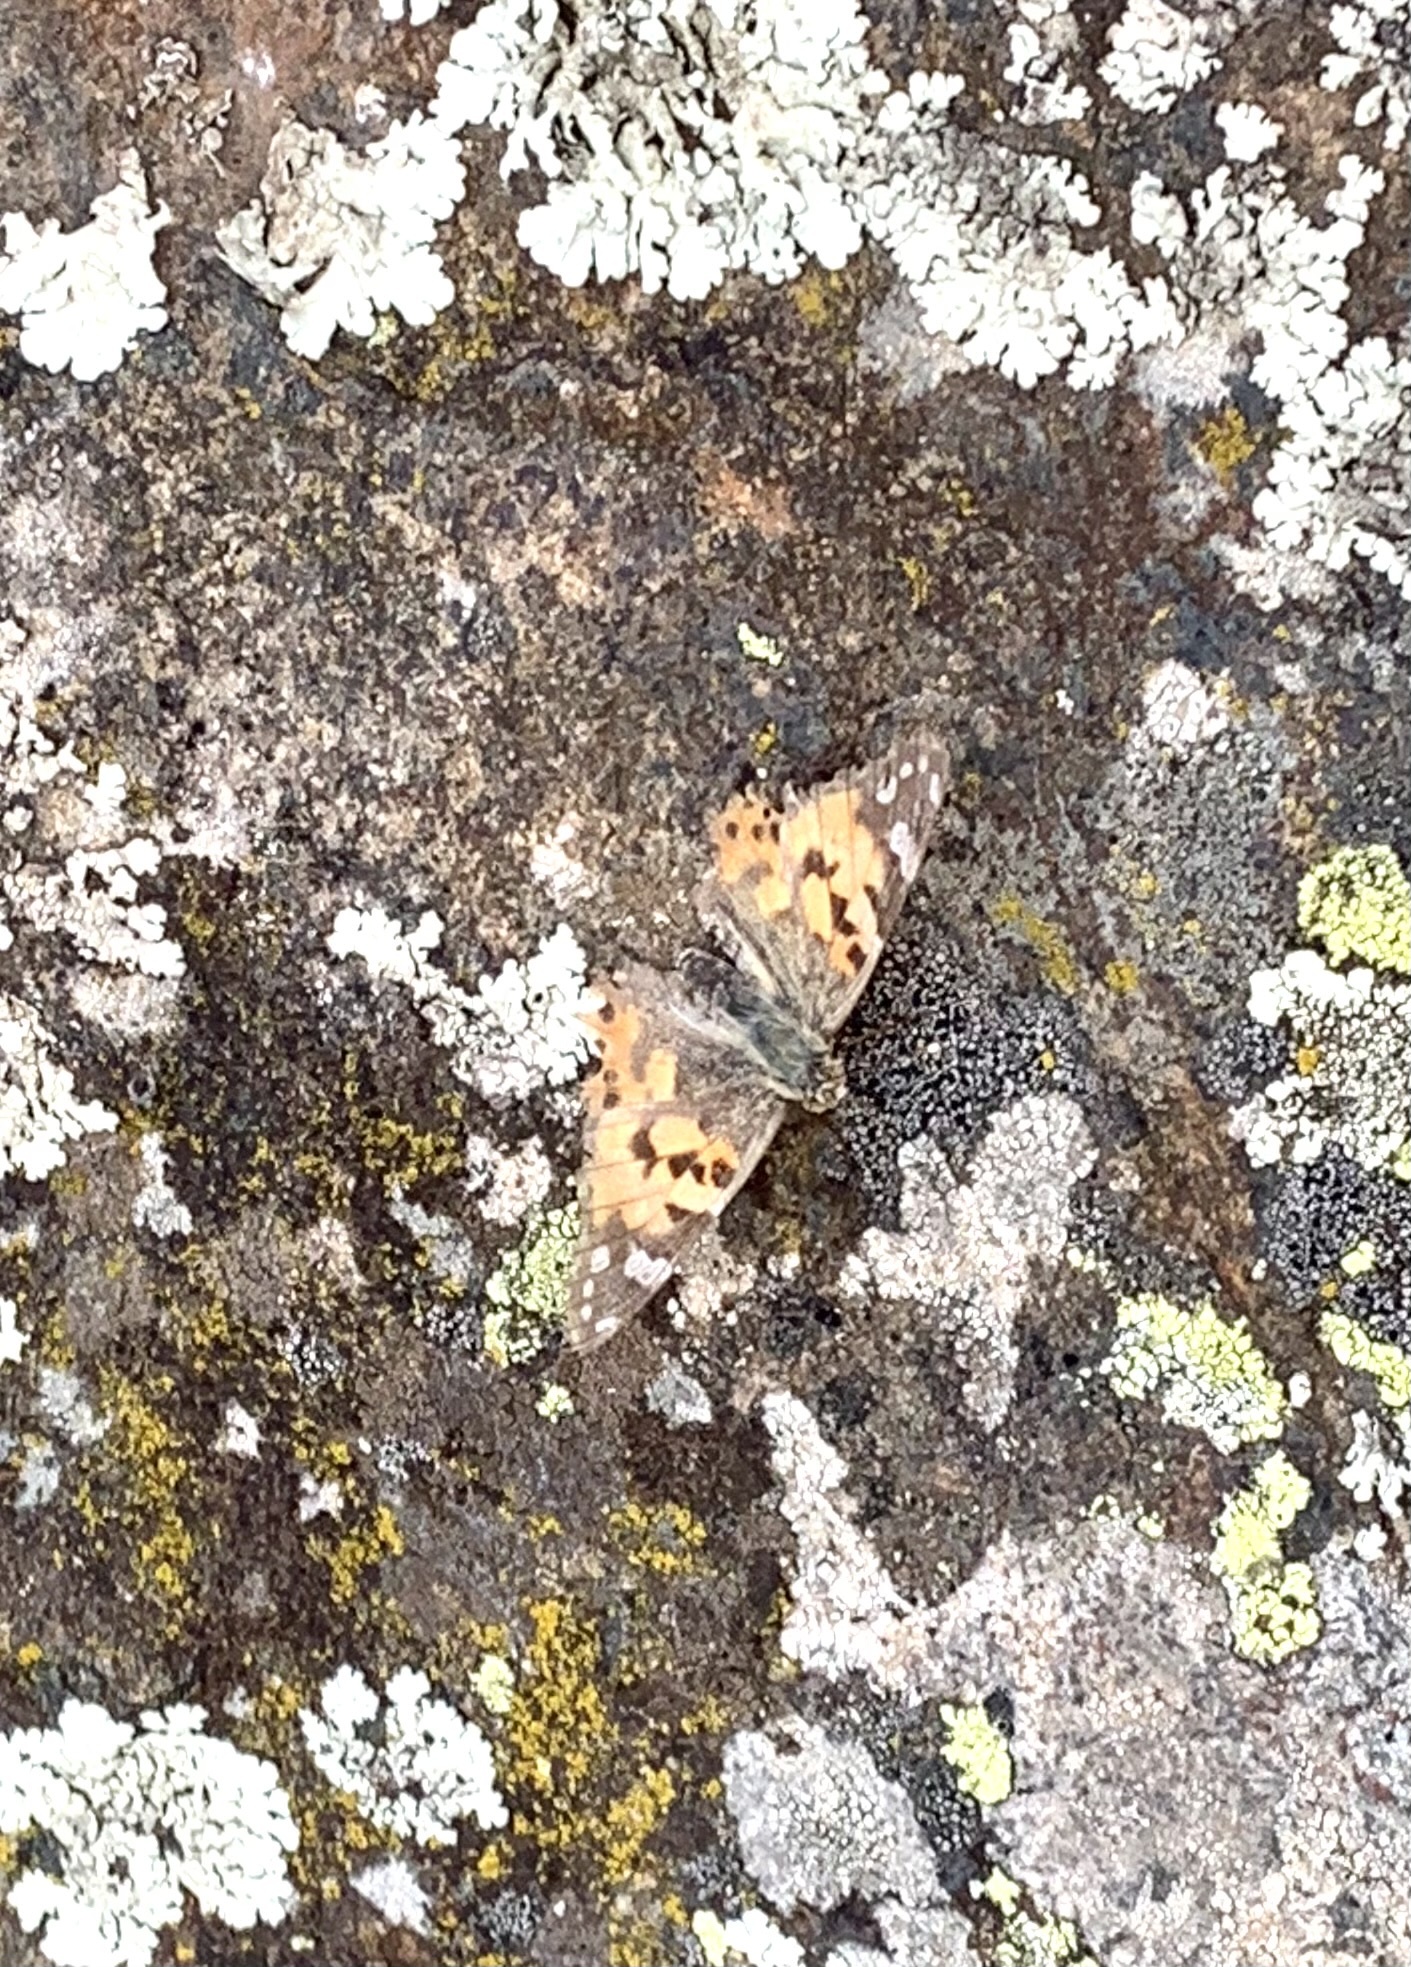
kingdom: Animalia
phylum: Arthropoda
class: Insecta
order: Lepidoptera
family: Nymphalidae
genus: Vanessa
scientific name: Vanessa cardui
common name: Painted lady
